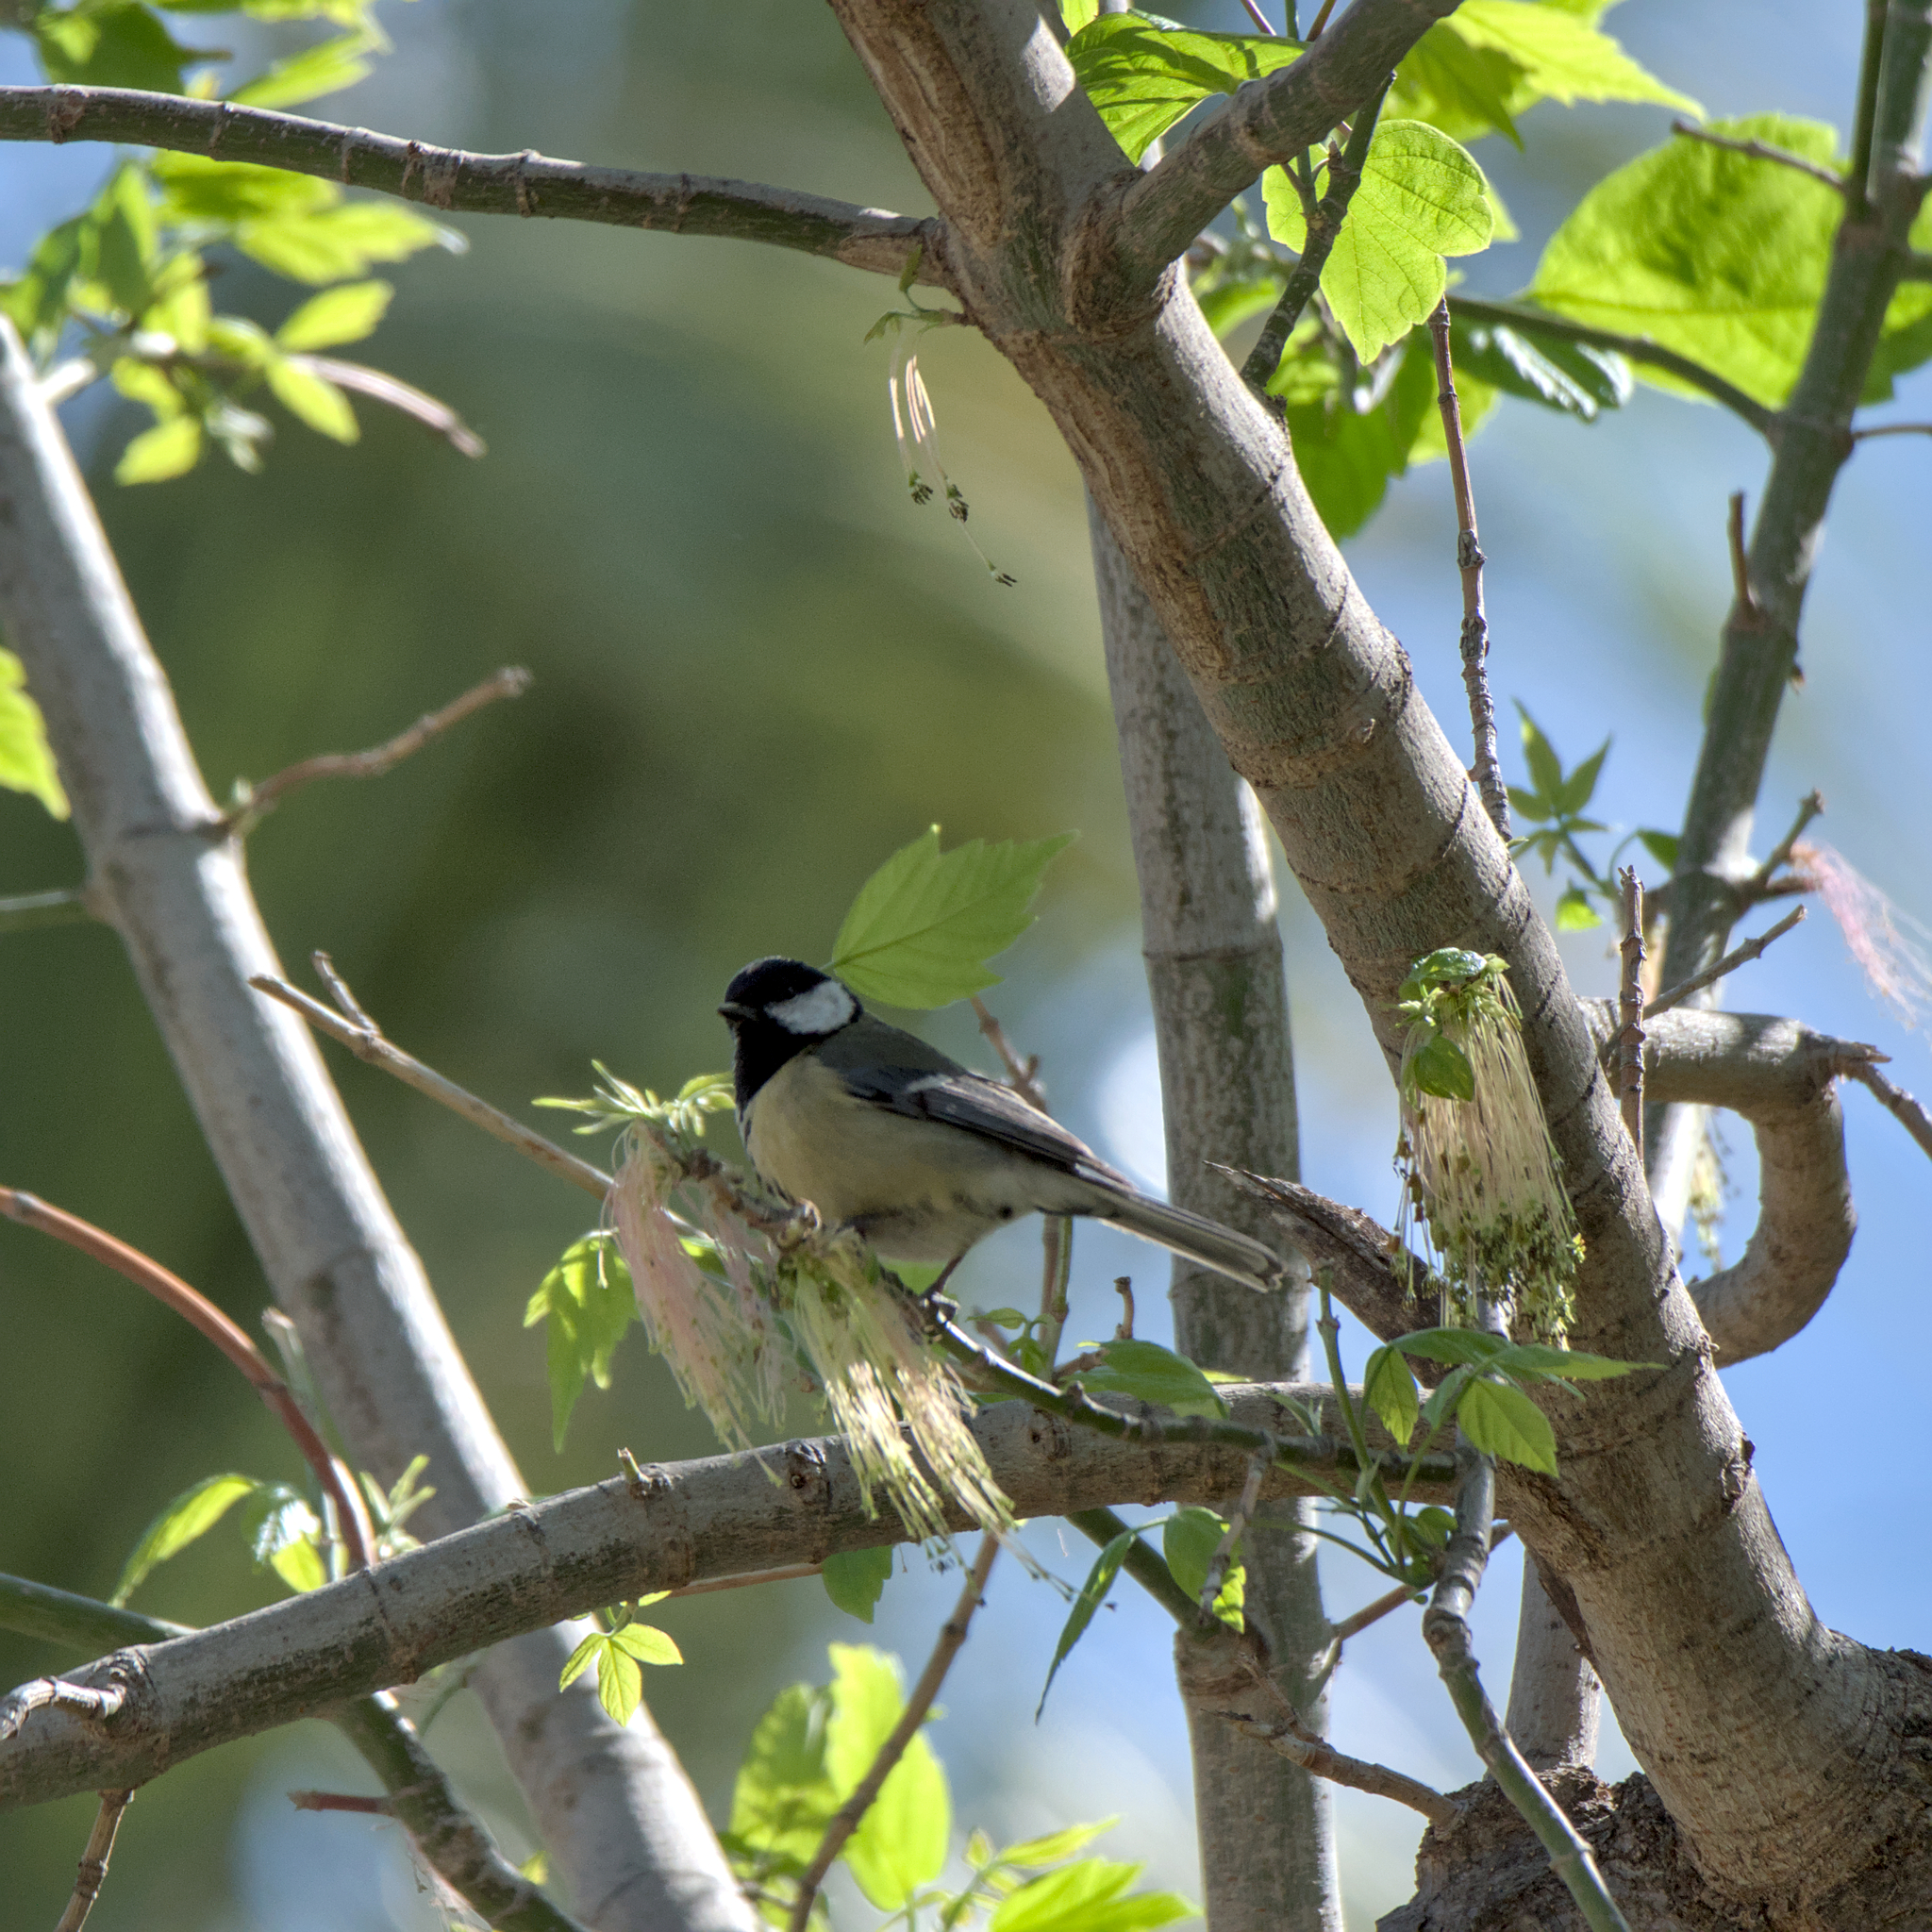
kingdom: Animalia
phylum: Chordata
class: Aves
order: Passeriformes
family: Paridae
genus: Parus
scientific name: Parus major
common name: Great tit
